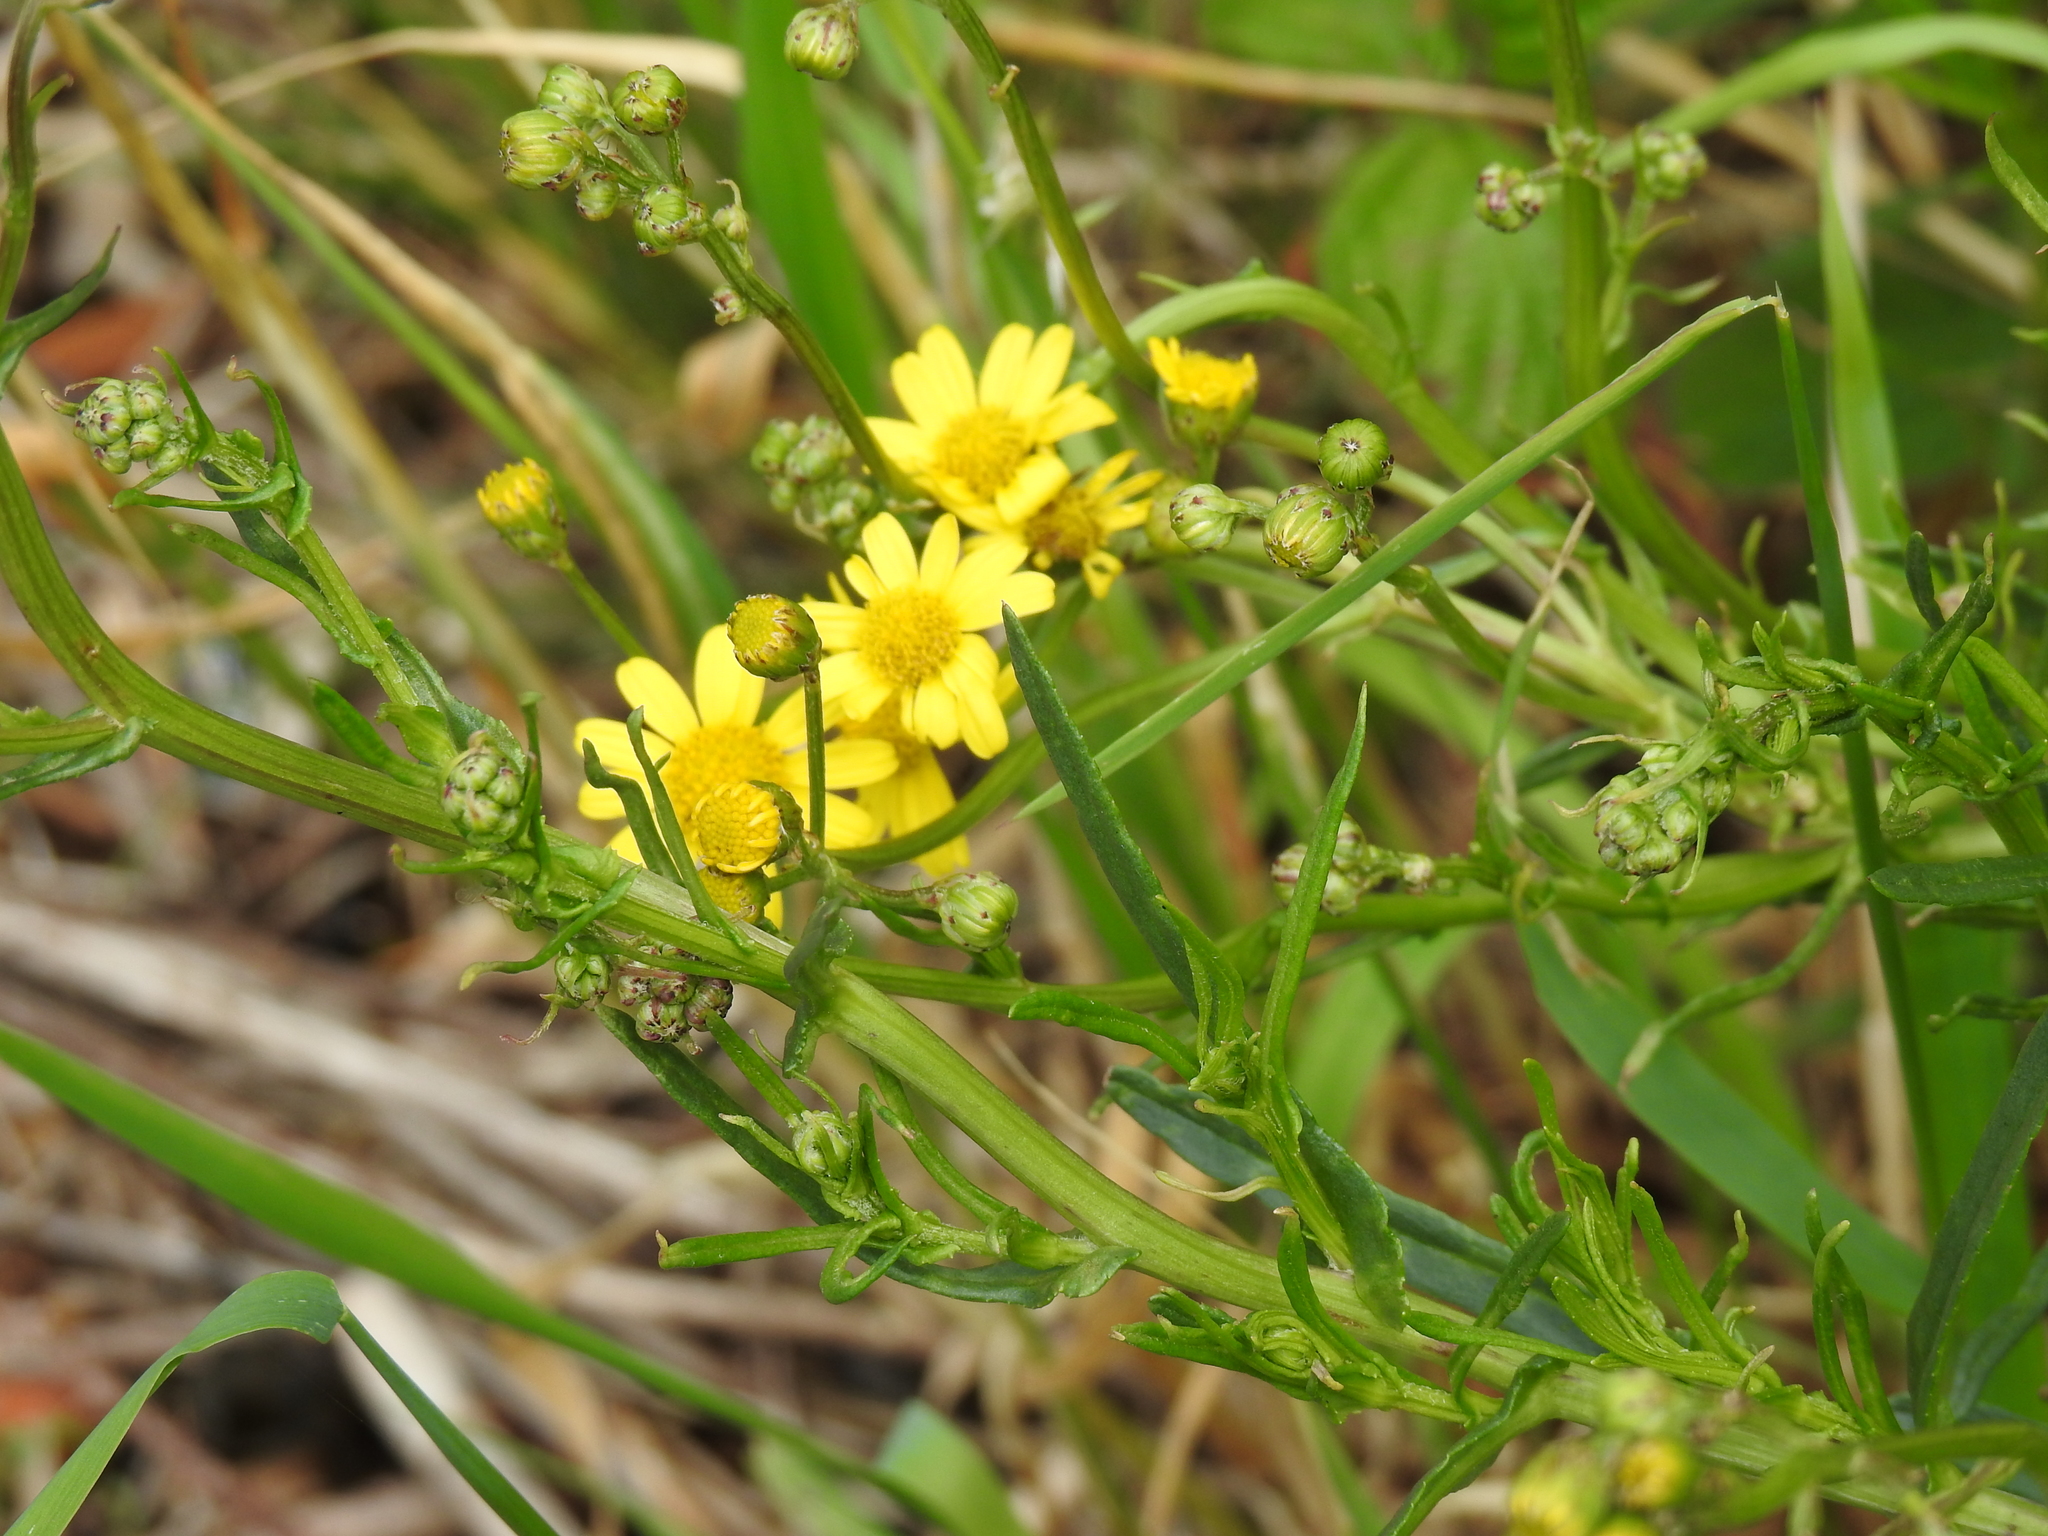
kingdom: Plantae
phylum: Tracheophyta
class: Magnoliopsida
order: Asterales
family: Asteraceae
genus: Senecio
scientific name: Senecio inaequidens
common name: Narrow-leaved ragwort
